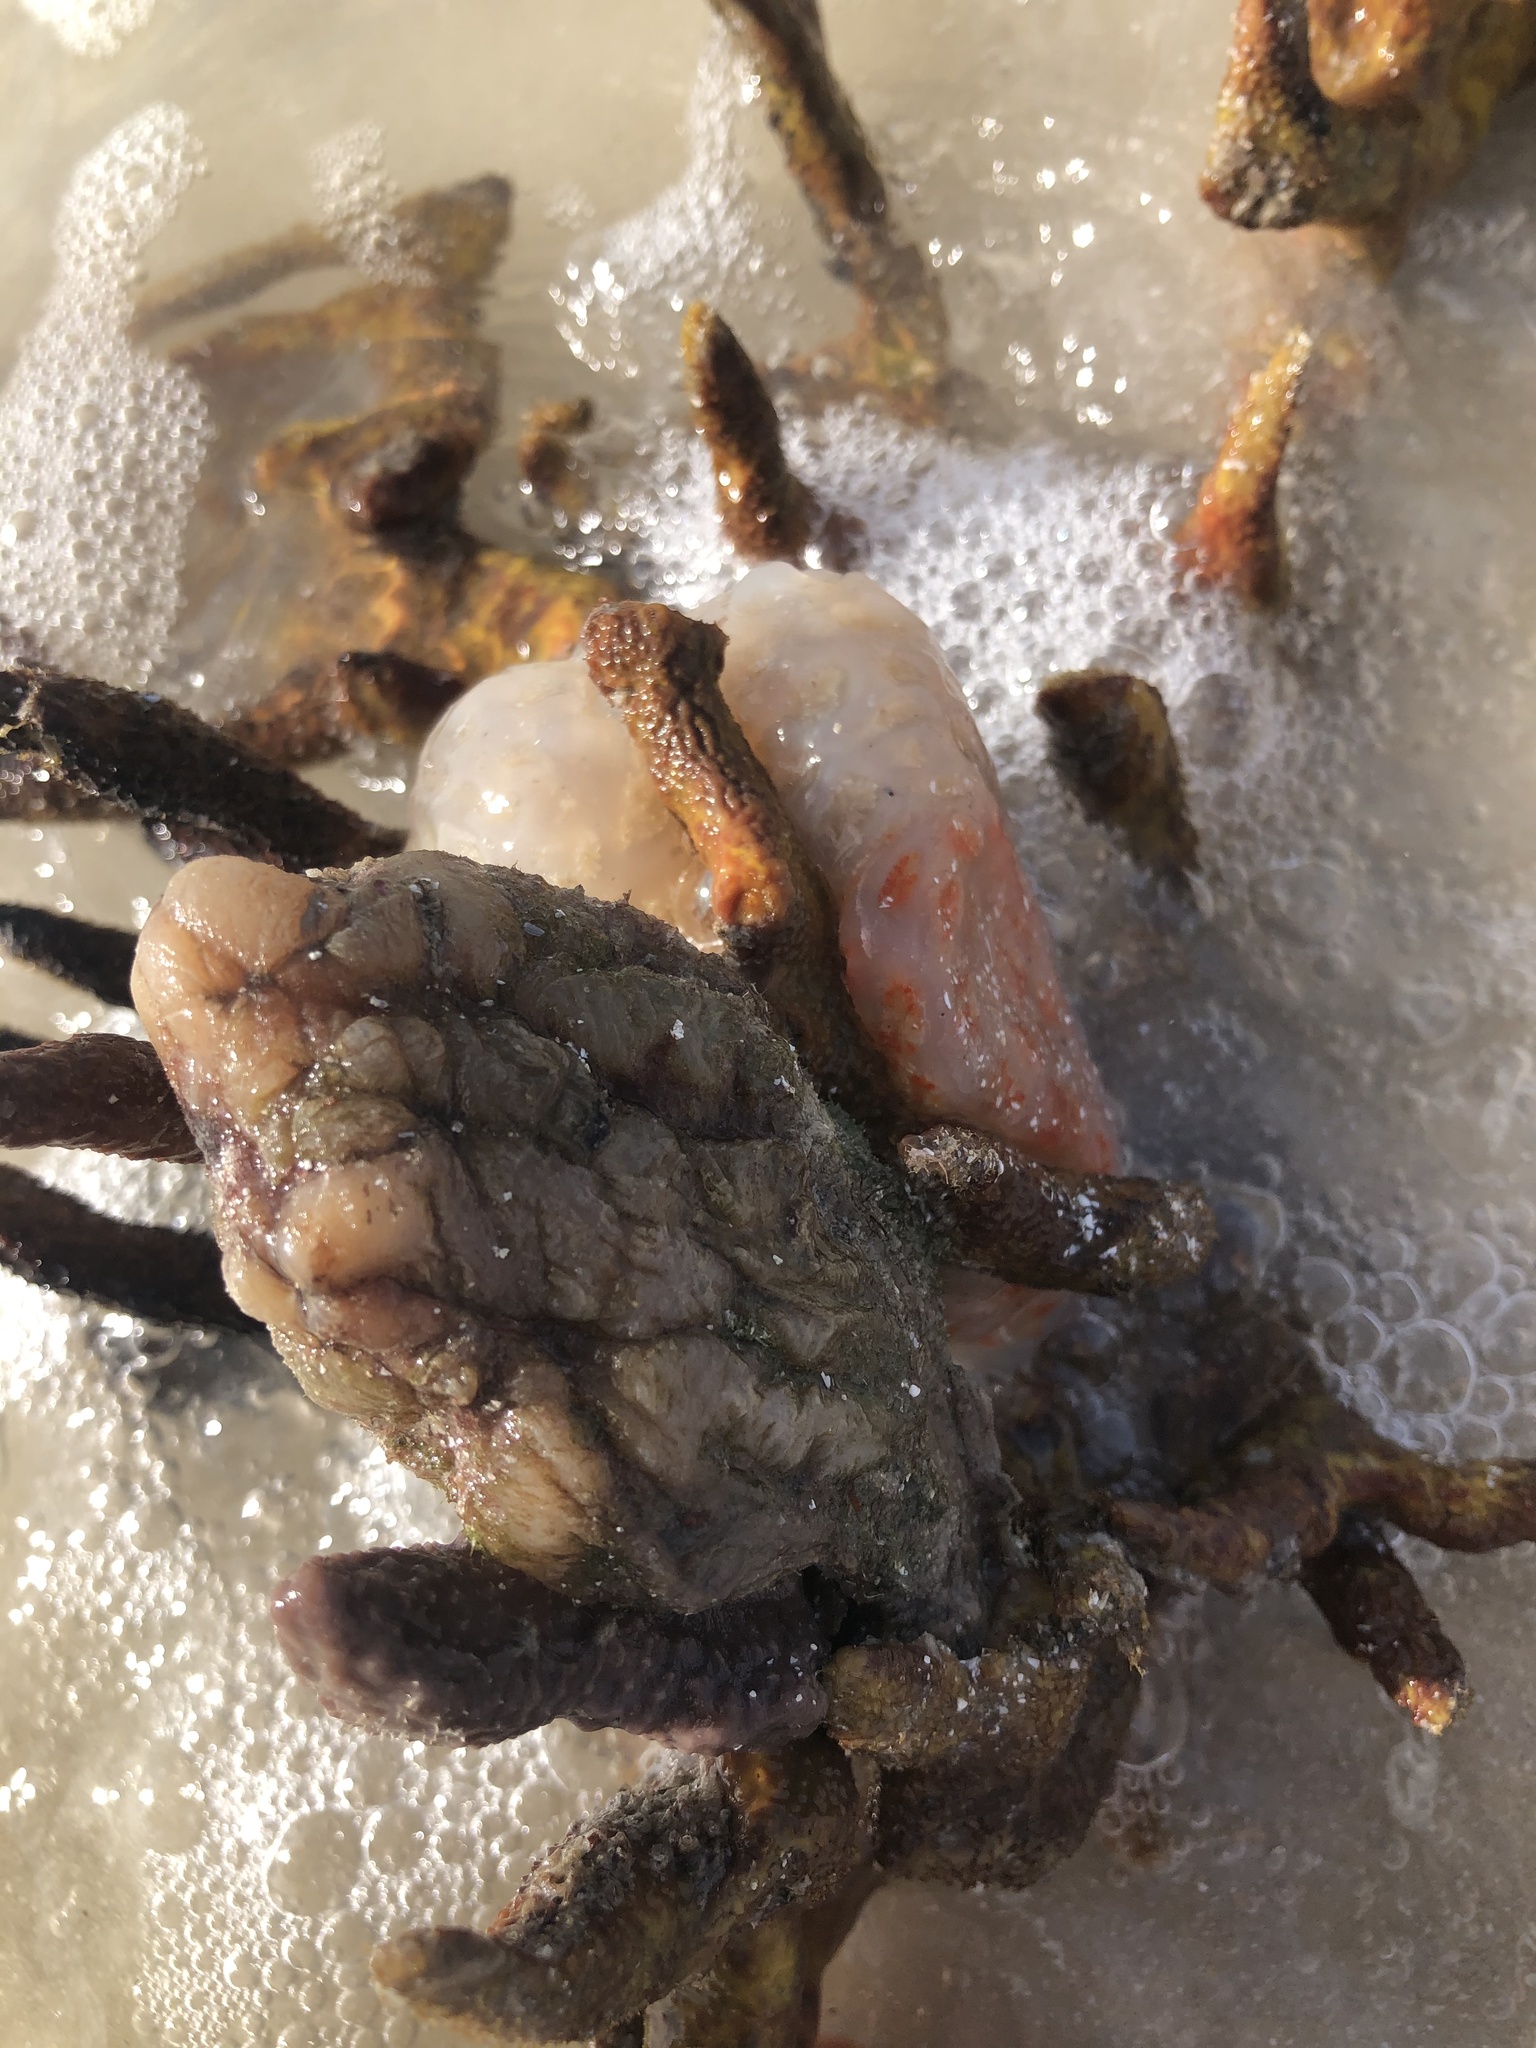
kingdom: Animalia
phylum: Chordata
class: Ascidiacea
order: Stolidobranchia
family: Styelidae
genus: Styela
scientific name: Styela plicata
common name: Pleated tunicate
